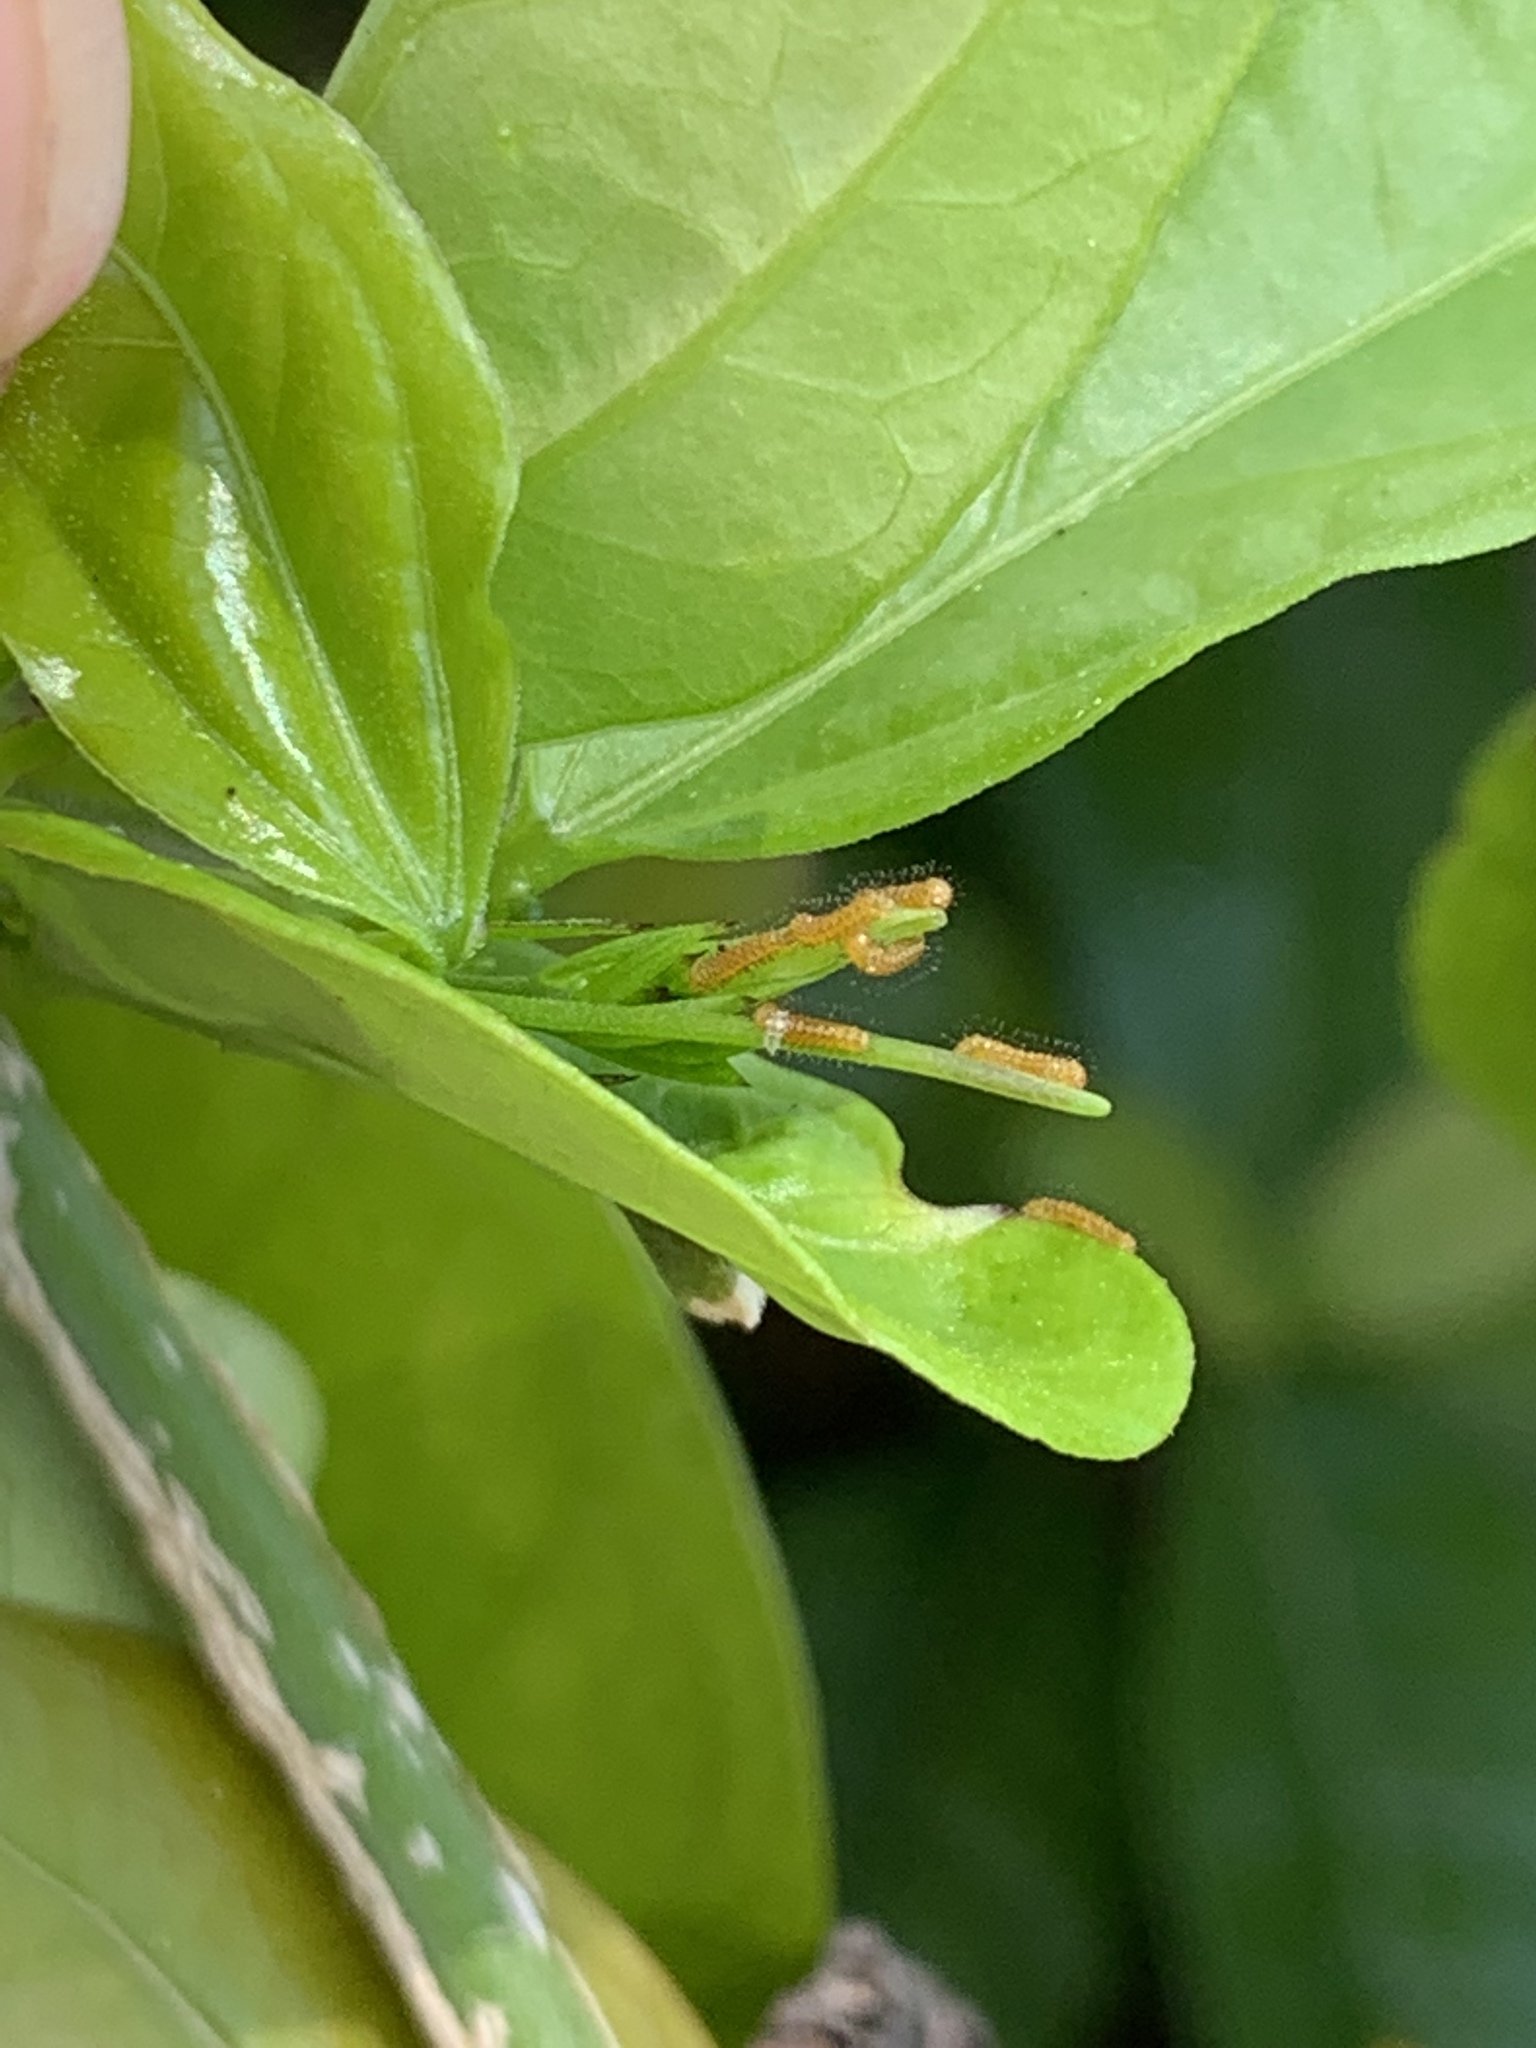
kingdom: Animalia
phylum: Arthropoda
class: Insecta
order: Lepidoptera
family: Nymphalidae
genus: Heliconius
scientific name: Heliconius charithonia
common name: Zebra long wing
